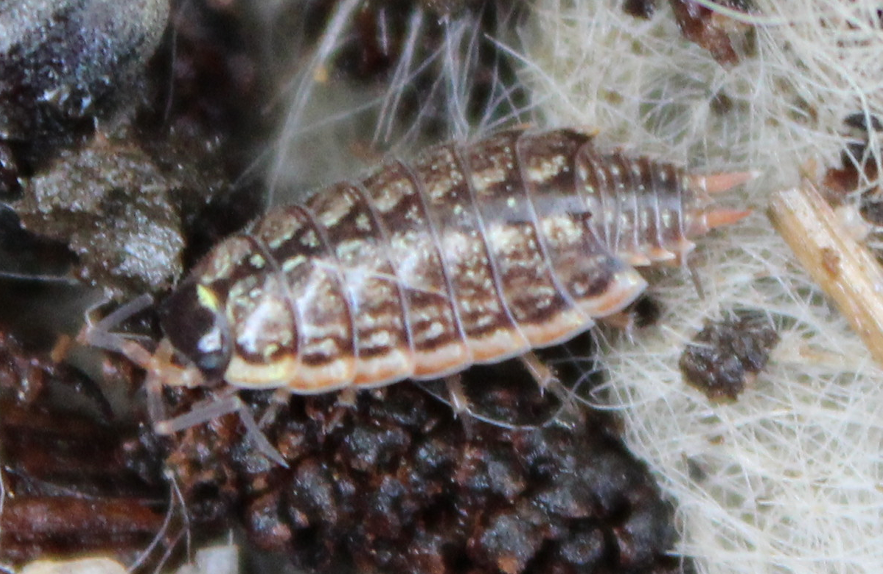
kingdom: Animalia
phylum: Arthropoda
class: Malacostraca
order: Isopoda
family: Philosciidae
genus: Philoscia
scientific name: Philoscia muscorum
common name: Common striped woodlouse
